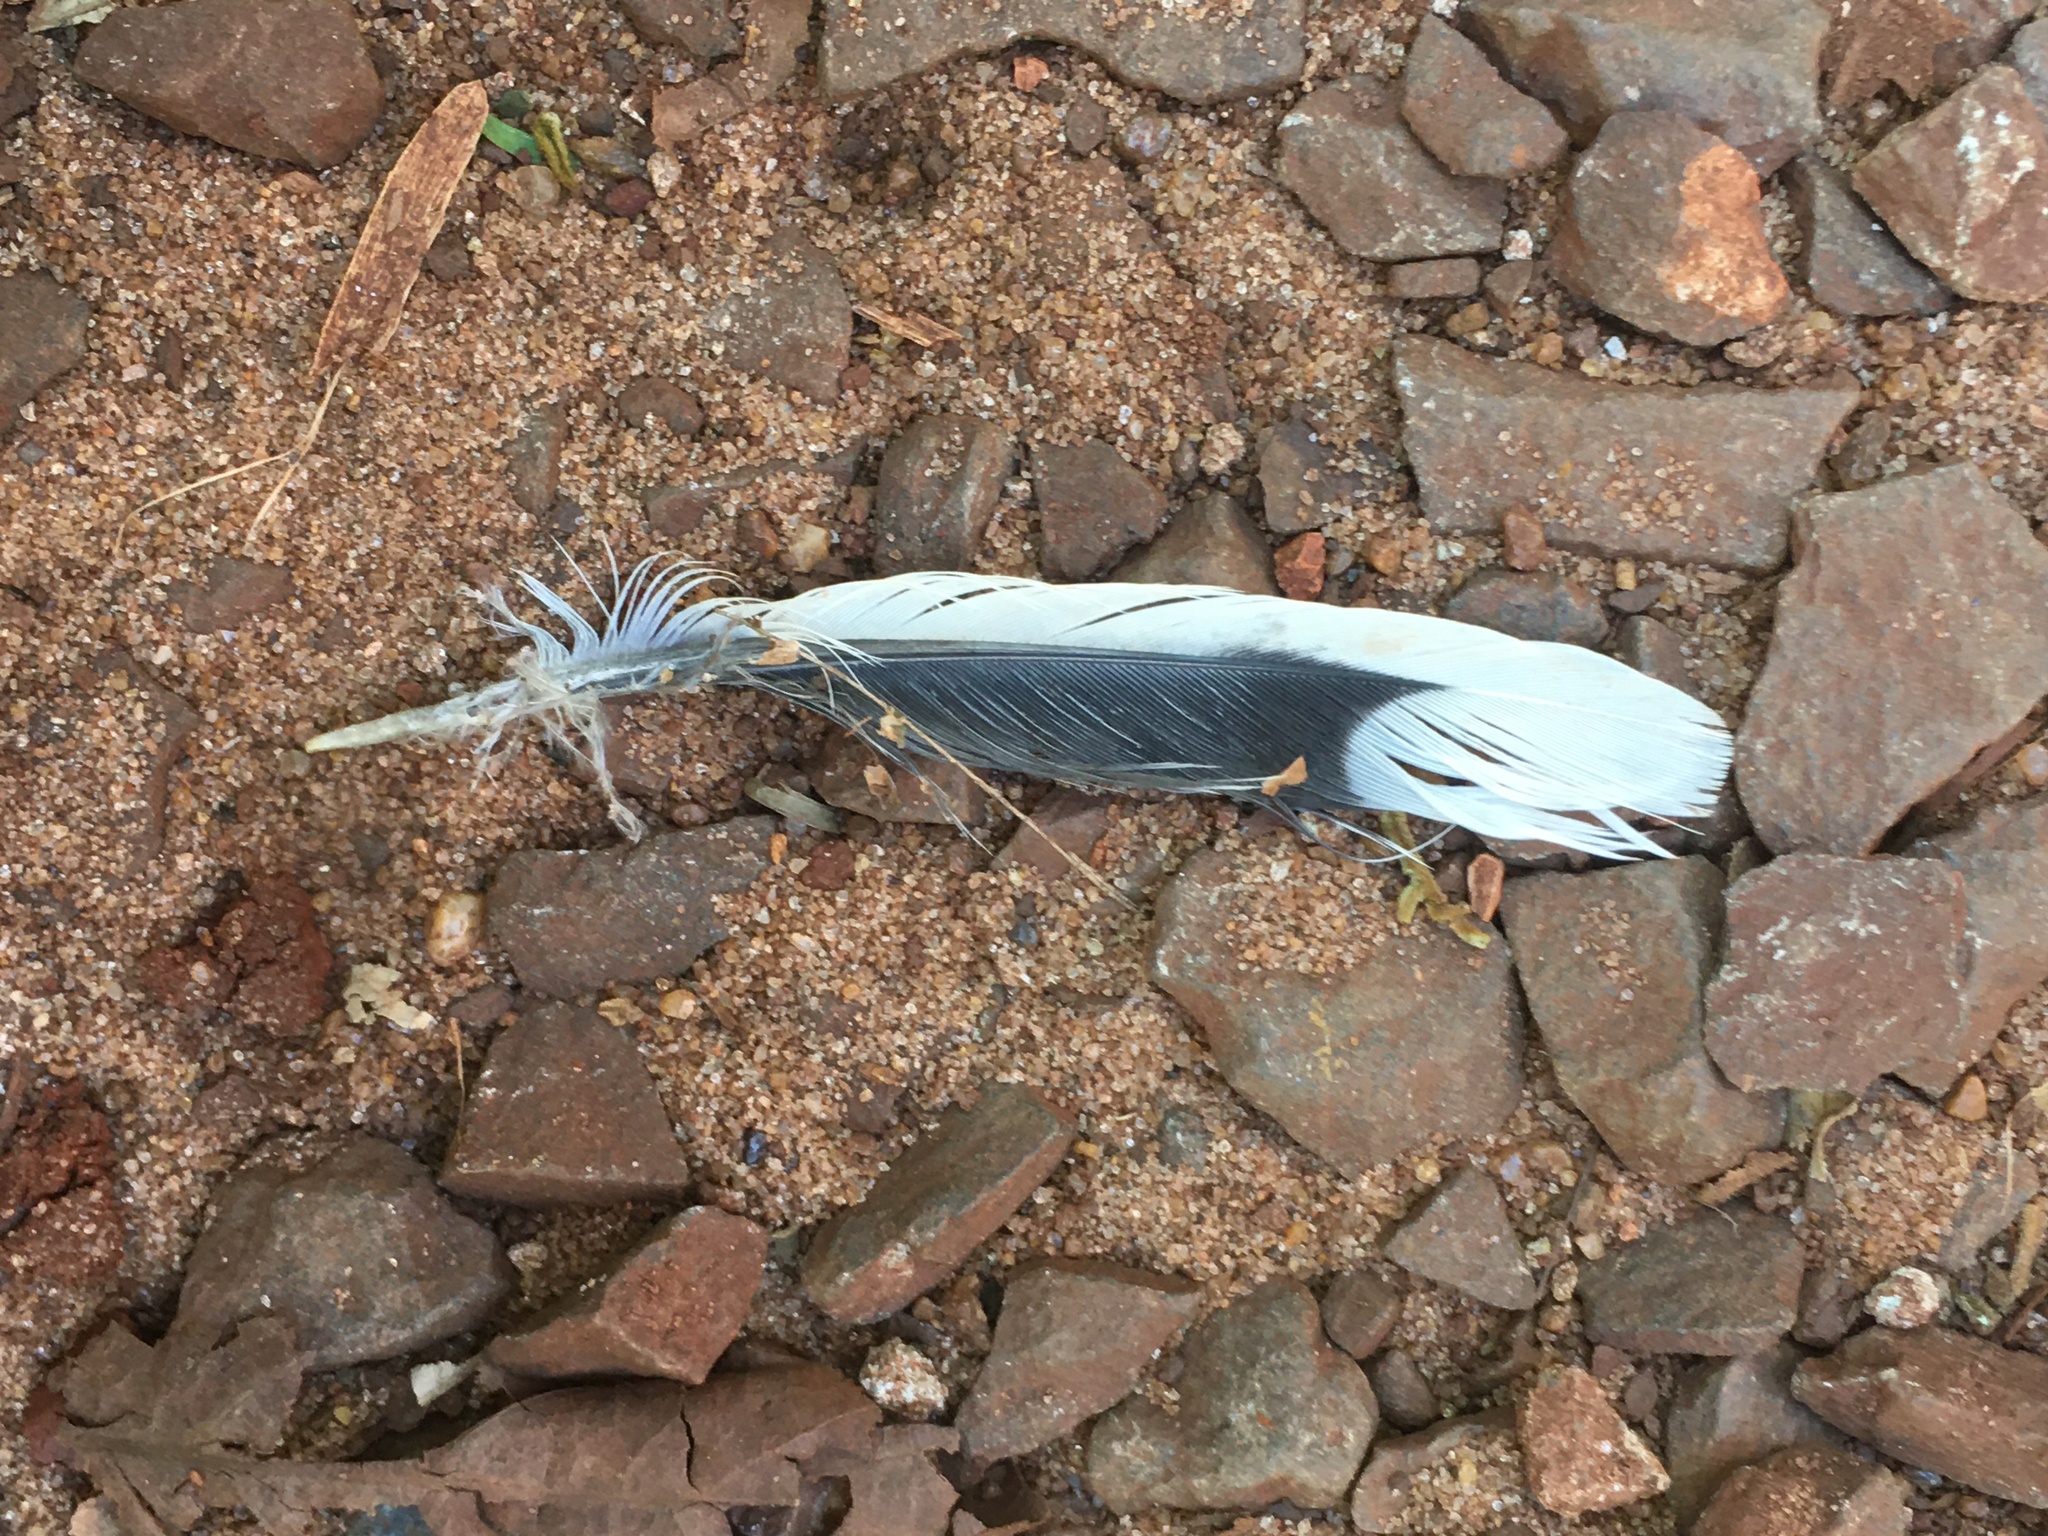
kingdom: Animalia
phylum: Chordata
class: Aves
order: Columbiformes
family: Columbidae
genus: Zenaida
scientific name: Zenaida auriculata
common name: Eared dove
